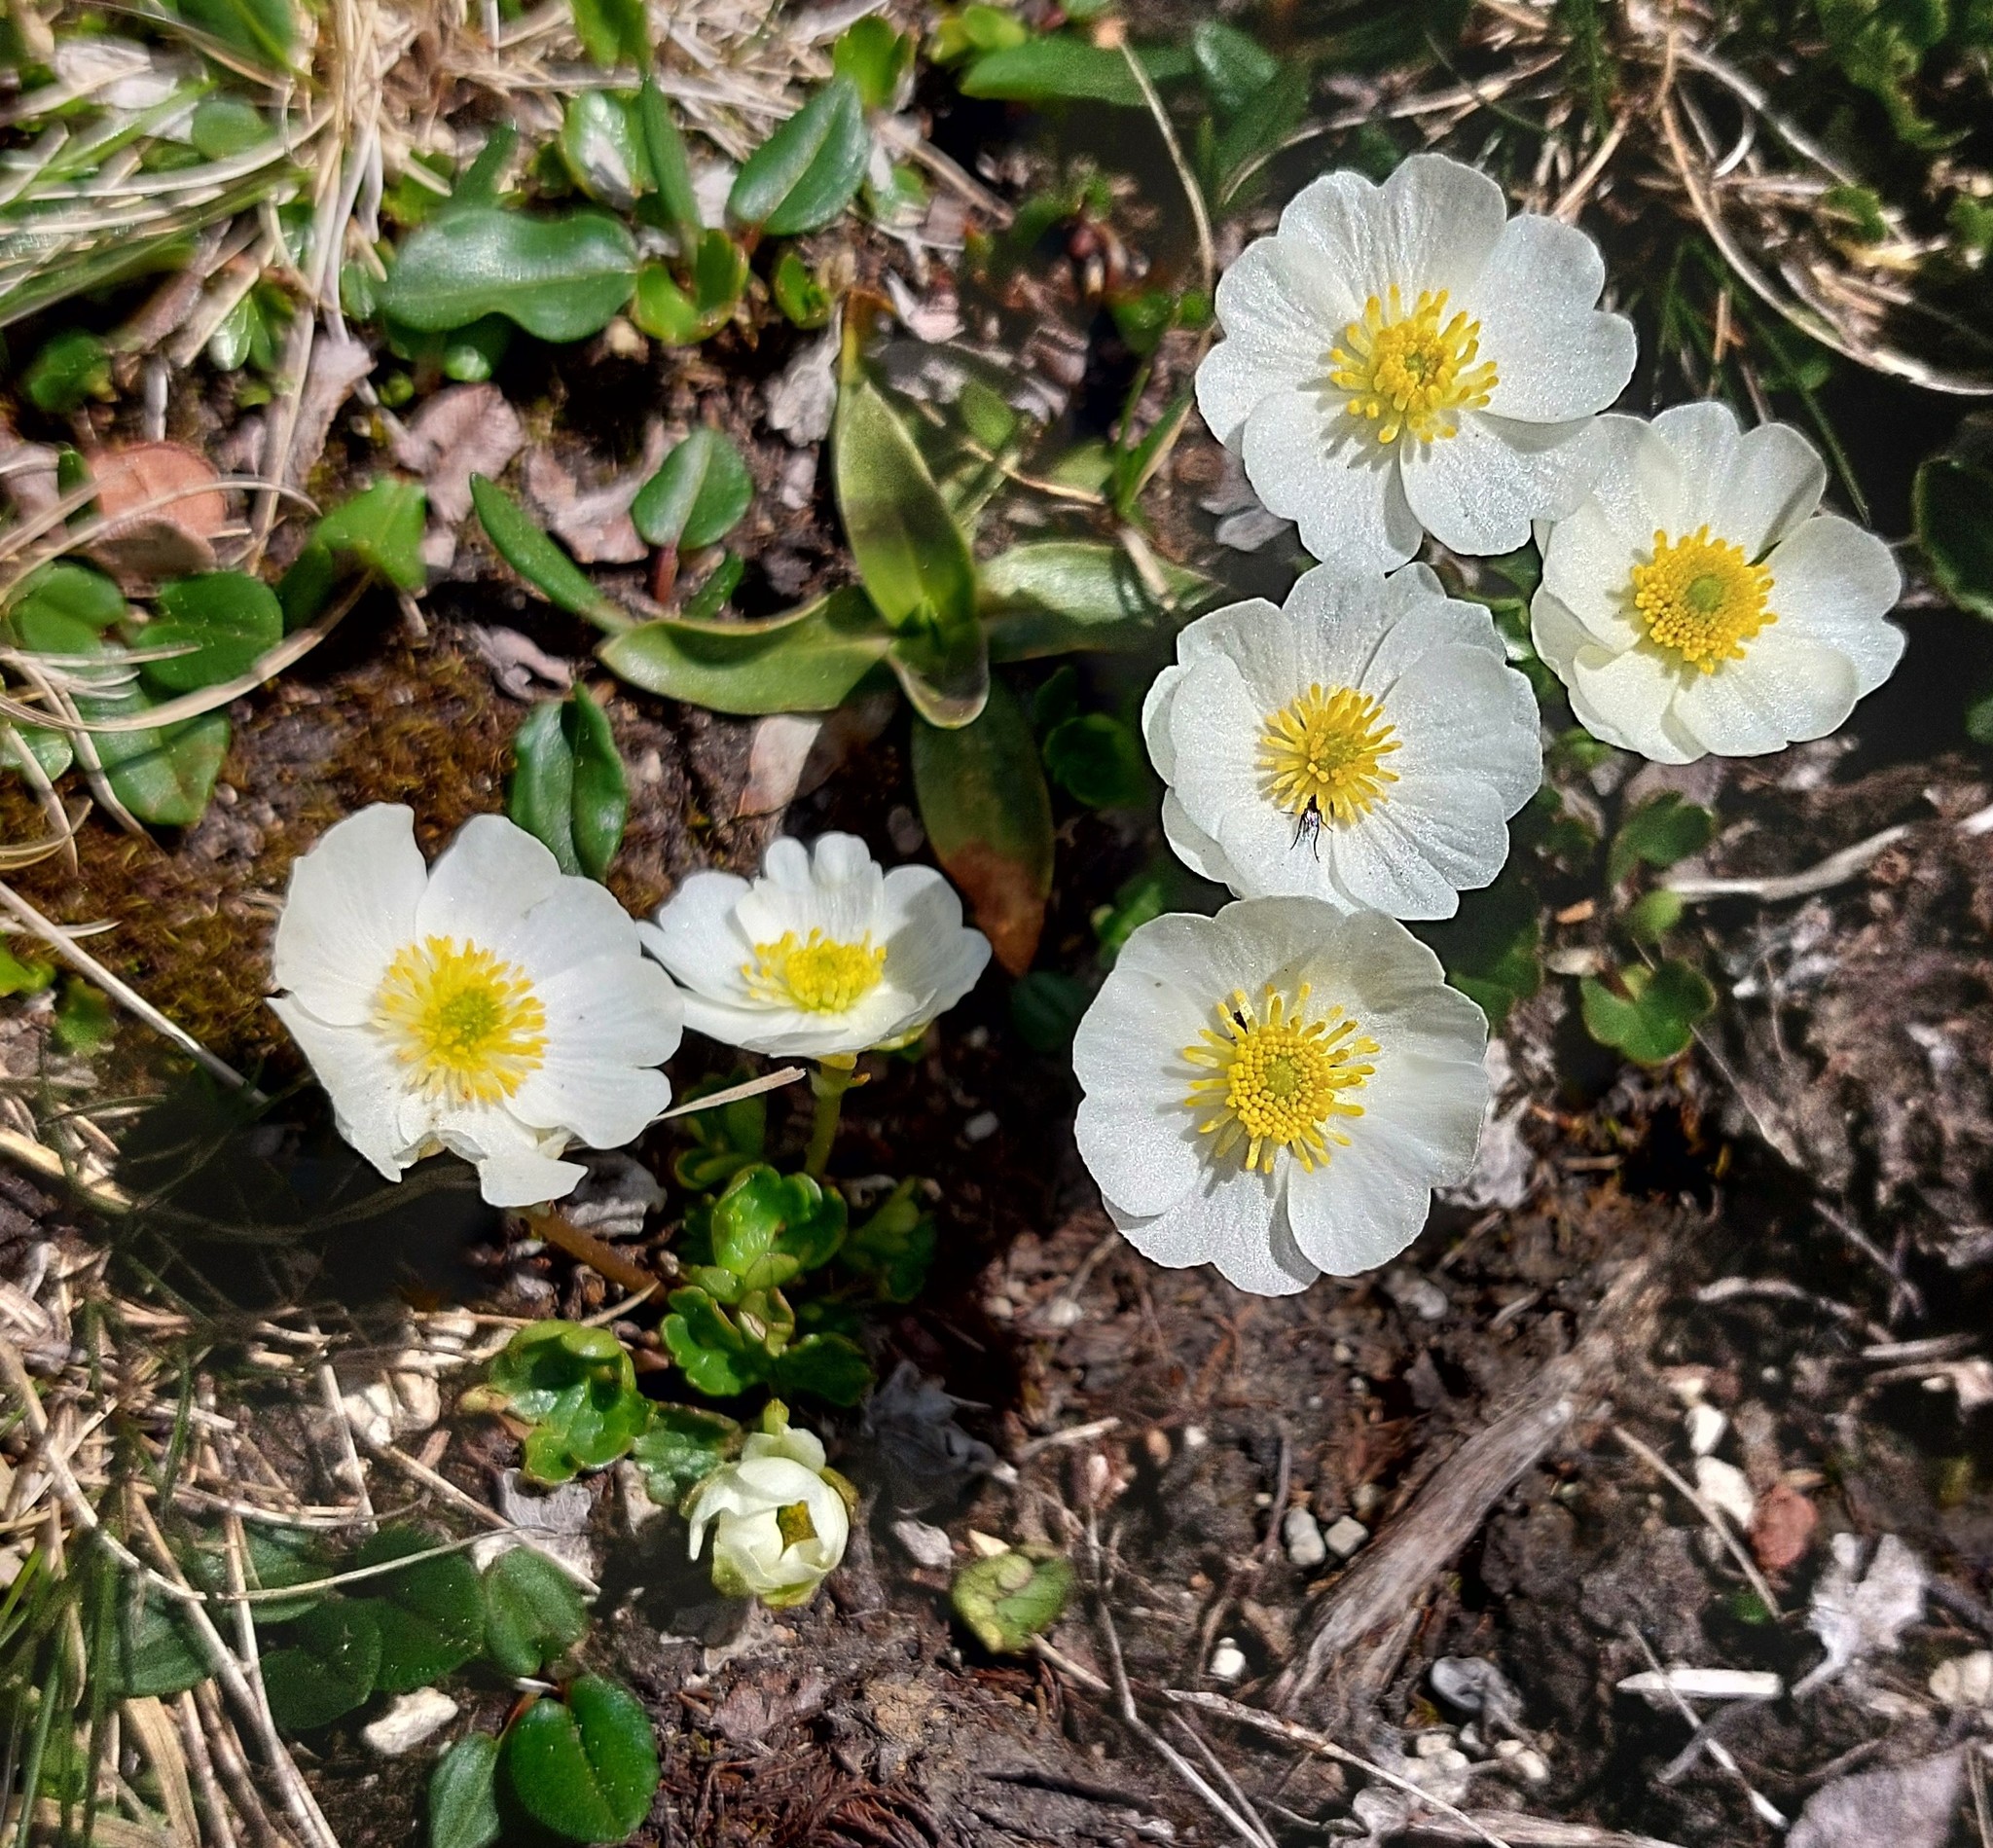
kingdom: Plantae
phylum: Tracheophyta
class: Magnoliopsida
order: Ranunculales
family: Ranunculaceae
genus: Ranunculus
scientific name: Ranunculus alpestris
